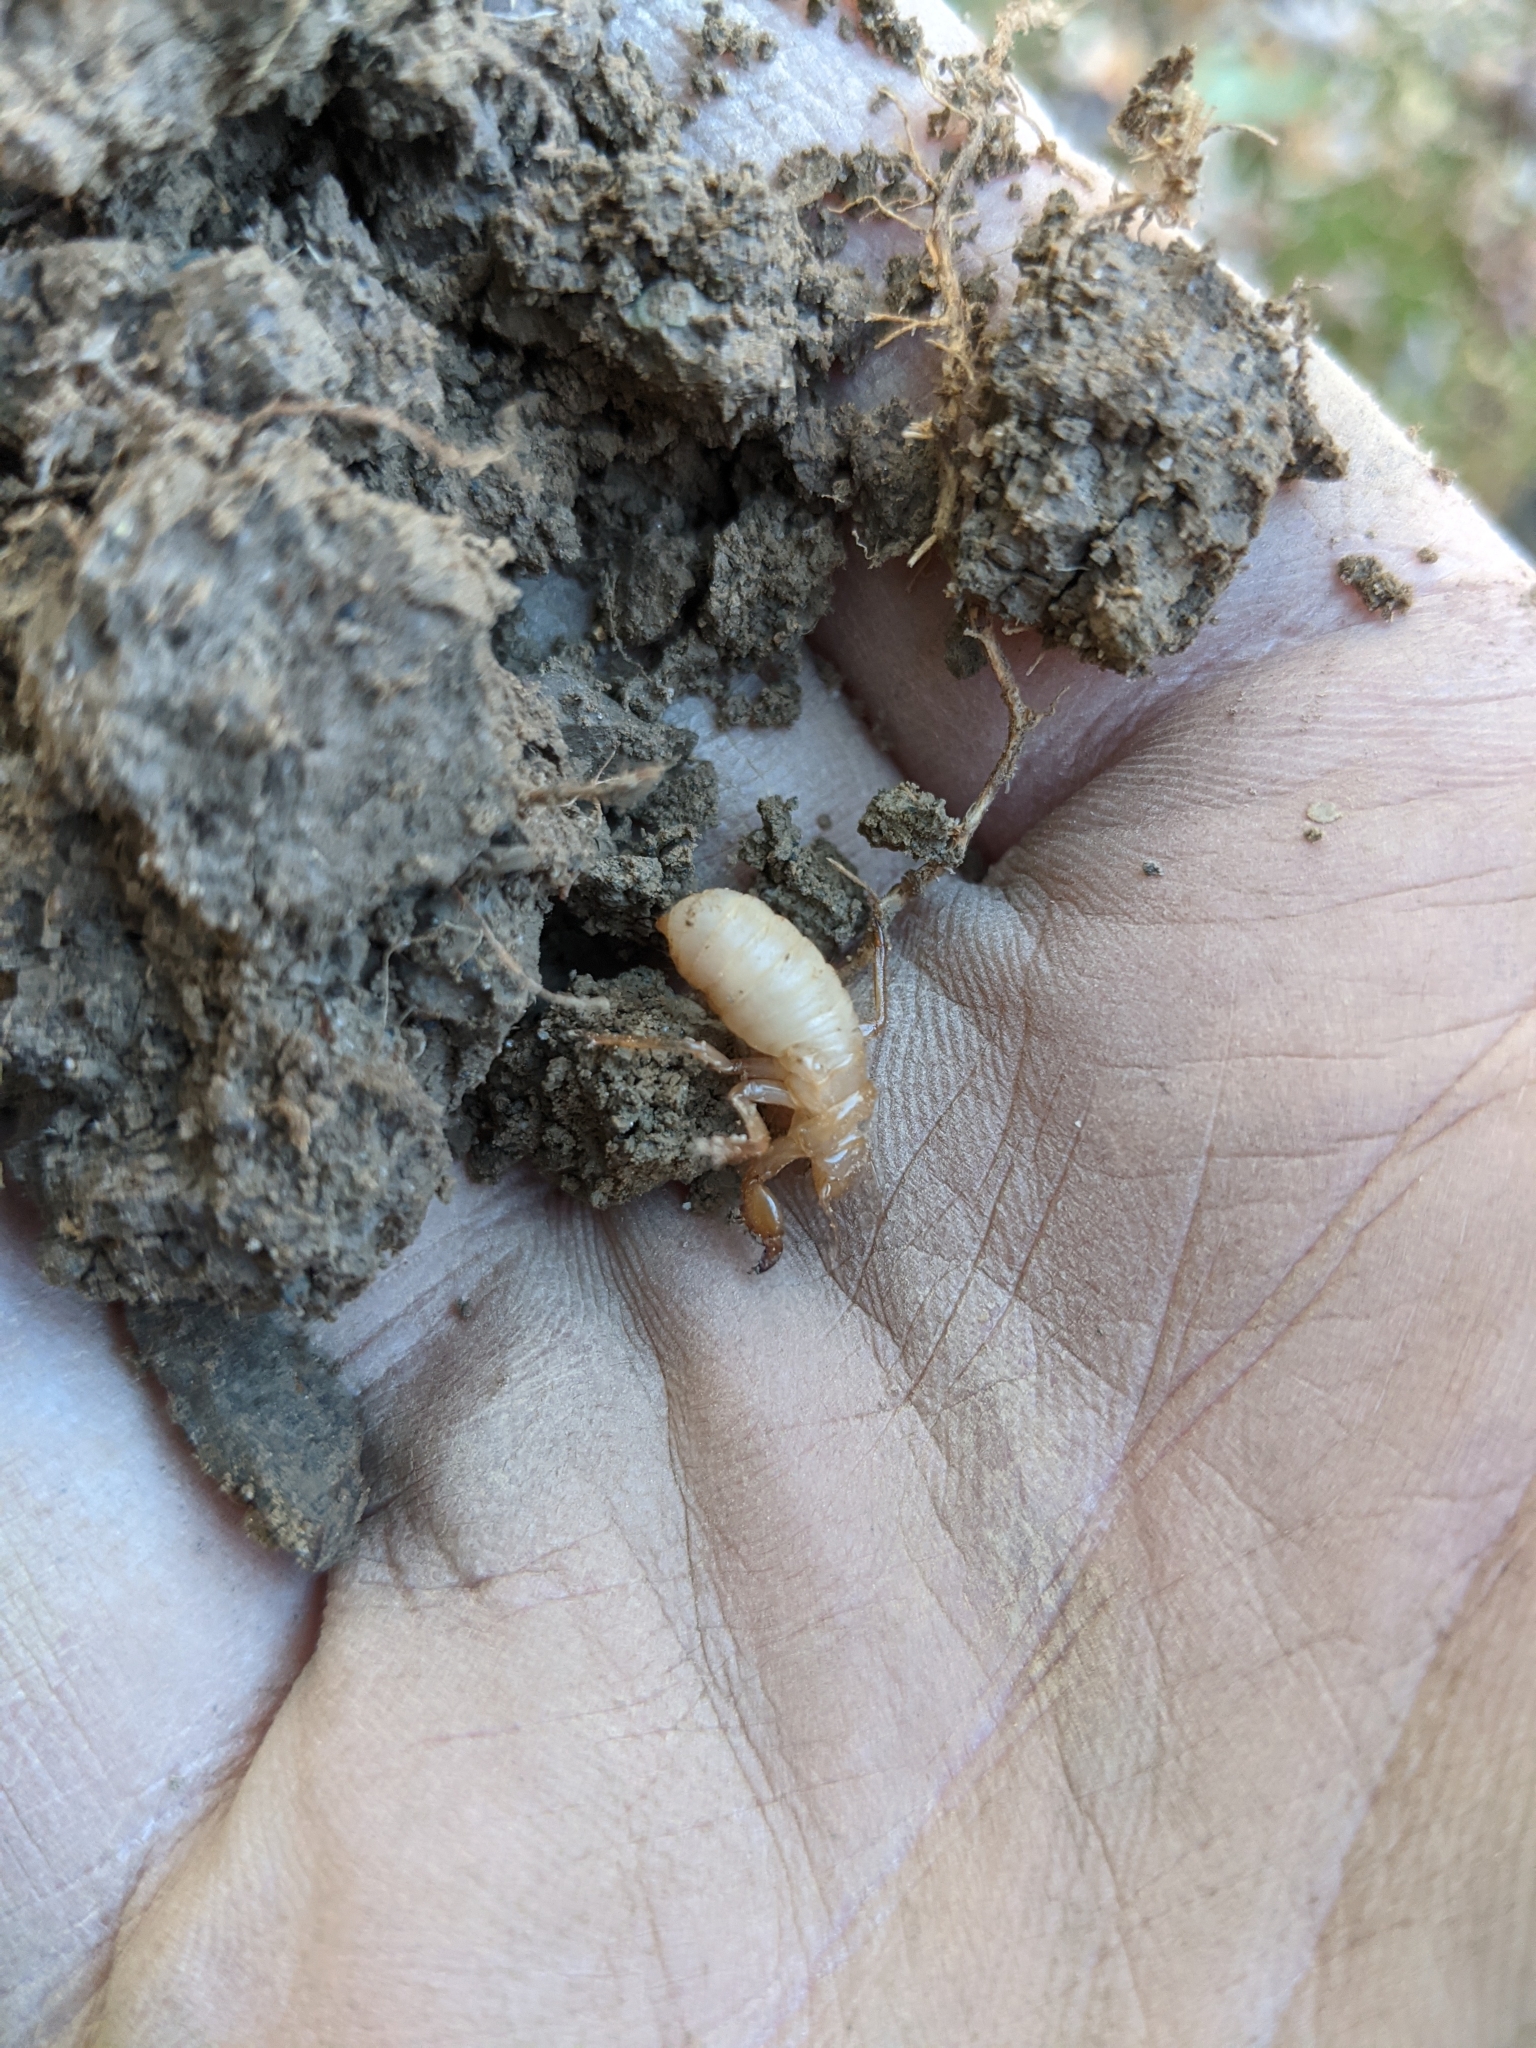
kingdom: Animalia
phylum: Arthropoda
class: Insecta
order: Hemiptera
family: Cicadidae
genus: Magicicada
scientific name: Magicicada
